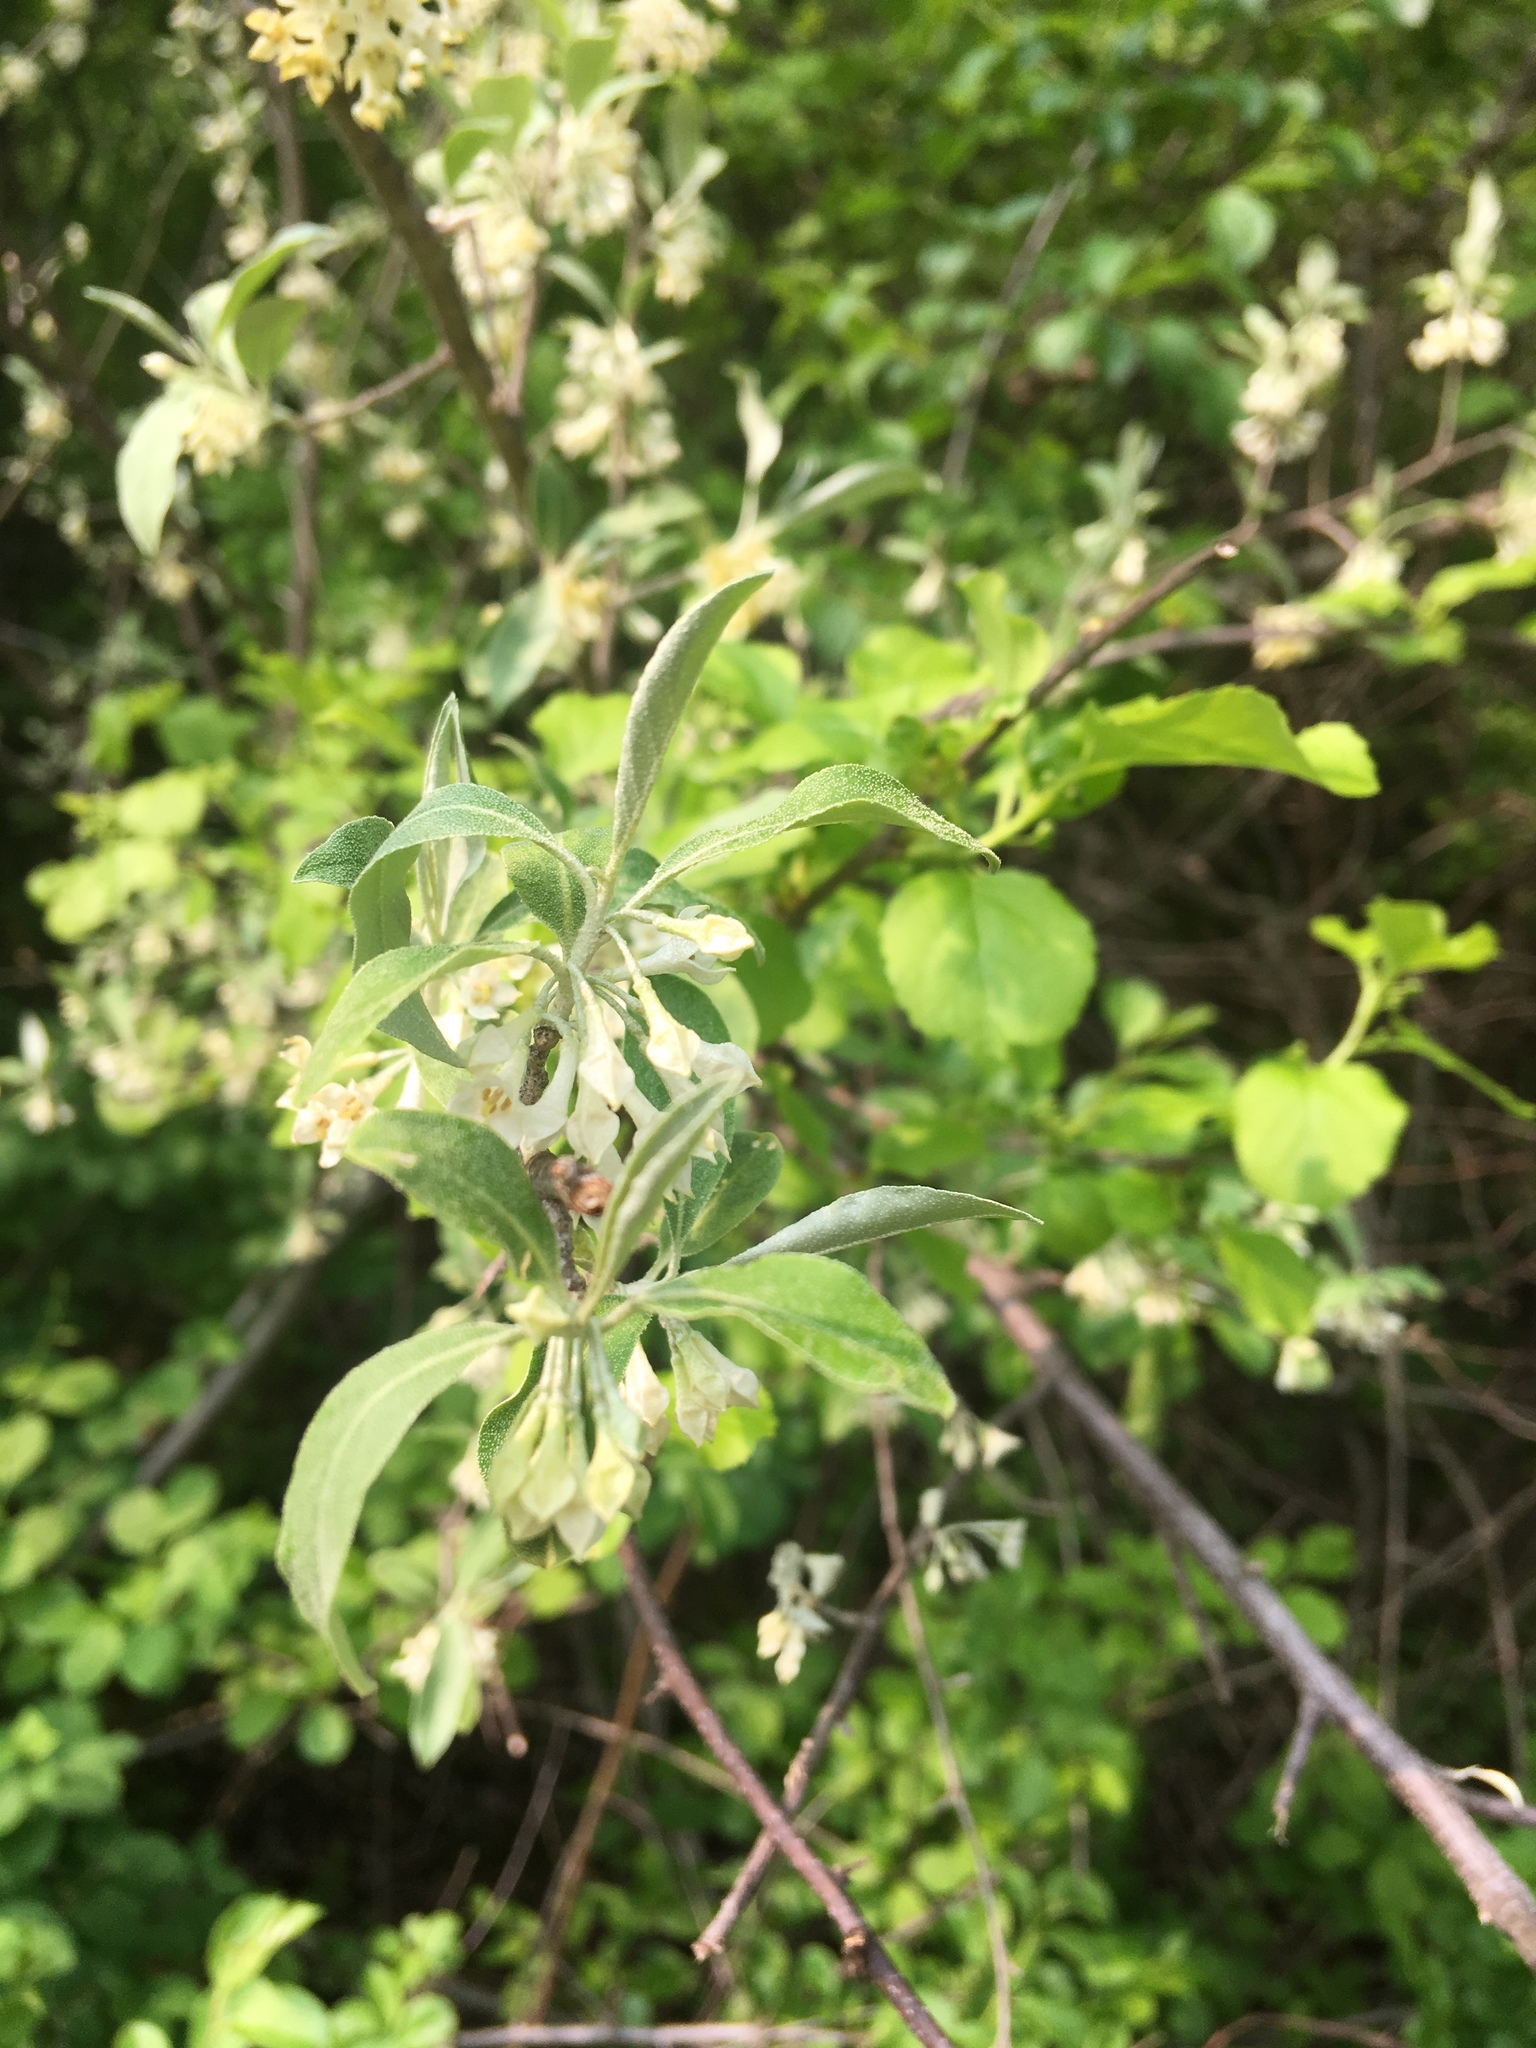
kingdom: Plantae
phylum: Tracheophyta
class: Magnoliopsida
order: Rosales
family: Elaeagnaceae
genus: Elaeagnus
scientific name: Elaeagnus umbellata
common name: Autumn olive
